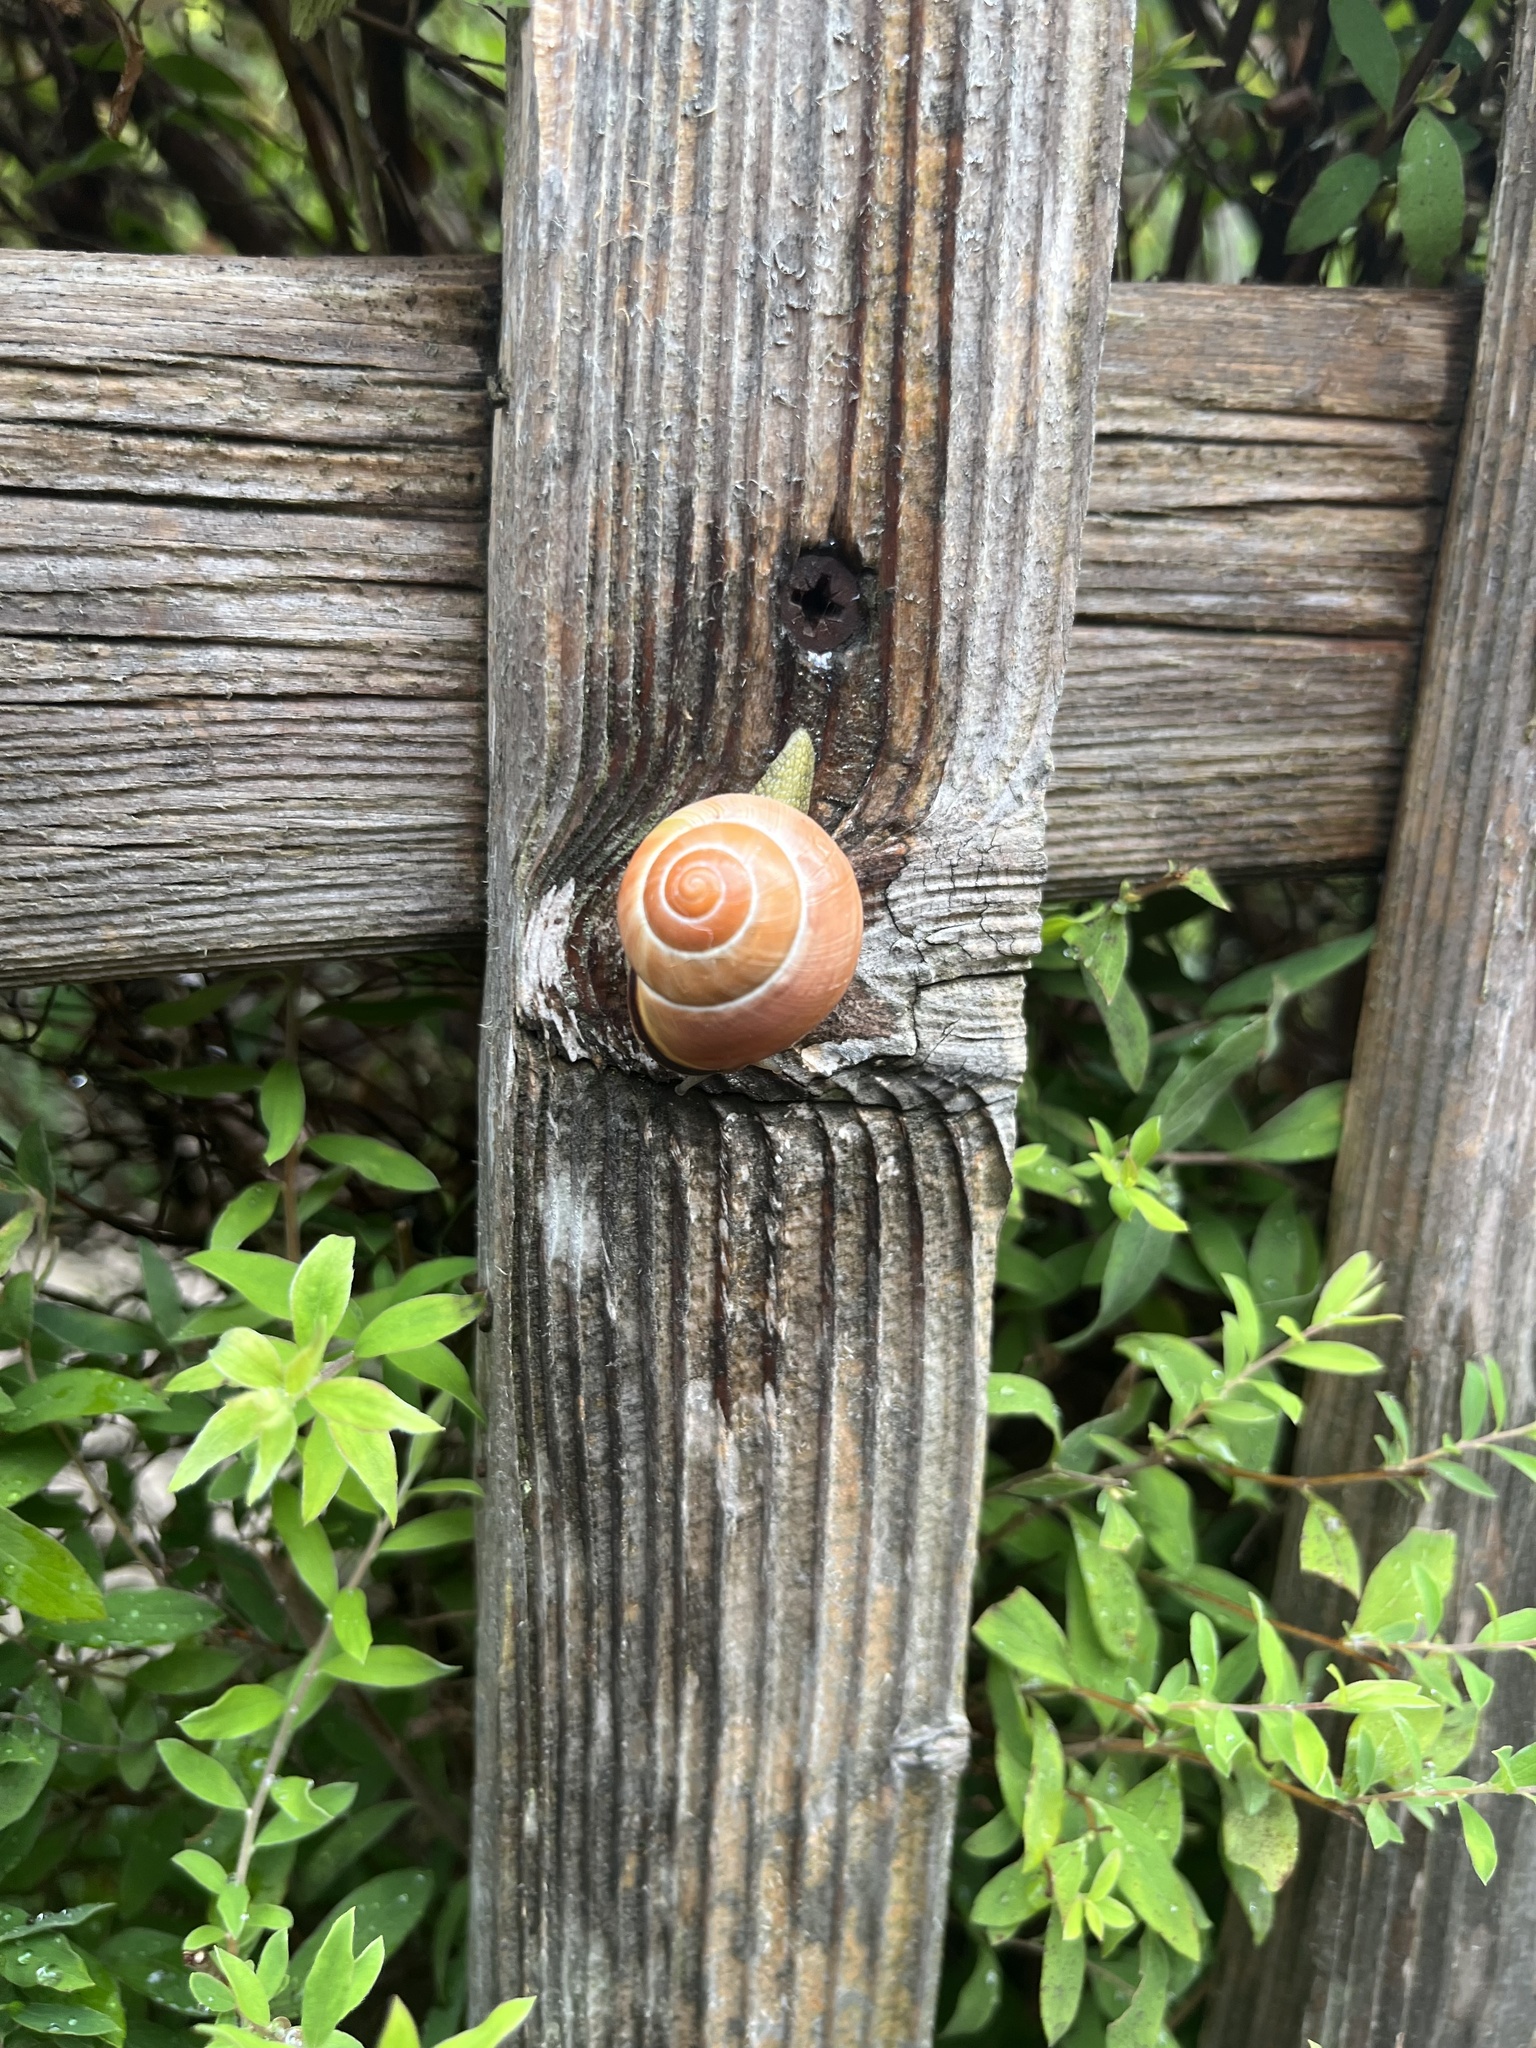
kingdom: Animalia
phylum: Mollusca
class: Gastropoda
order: Stylommatophora
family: Helicidae
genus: Cepaea
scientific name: Cepaea nemoralis
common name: Grovesnail
